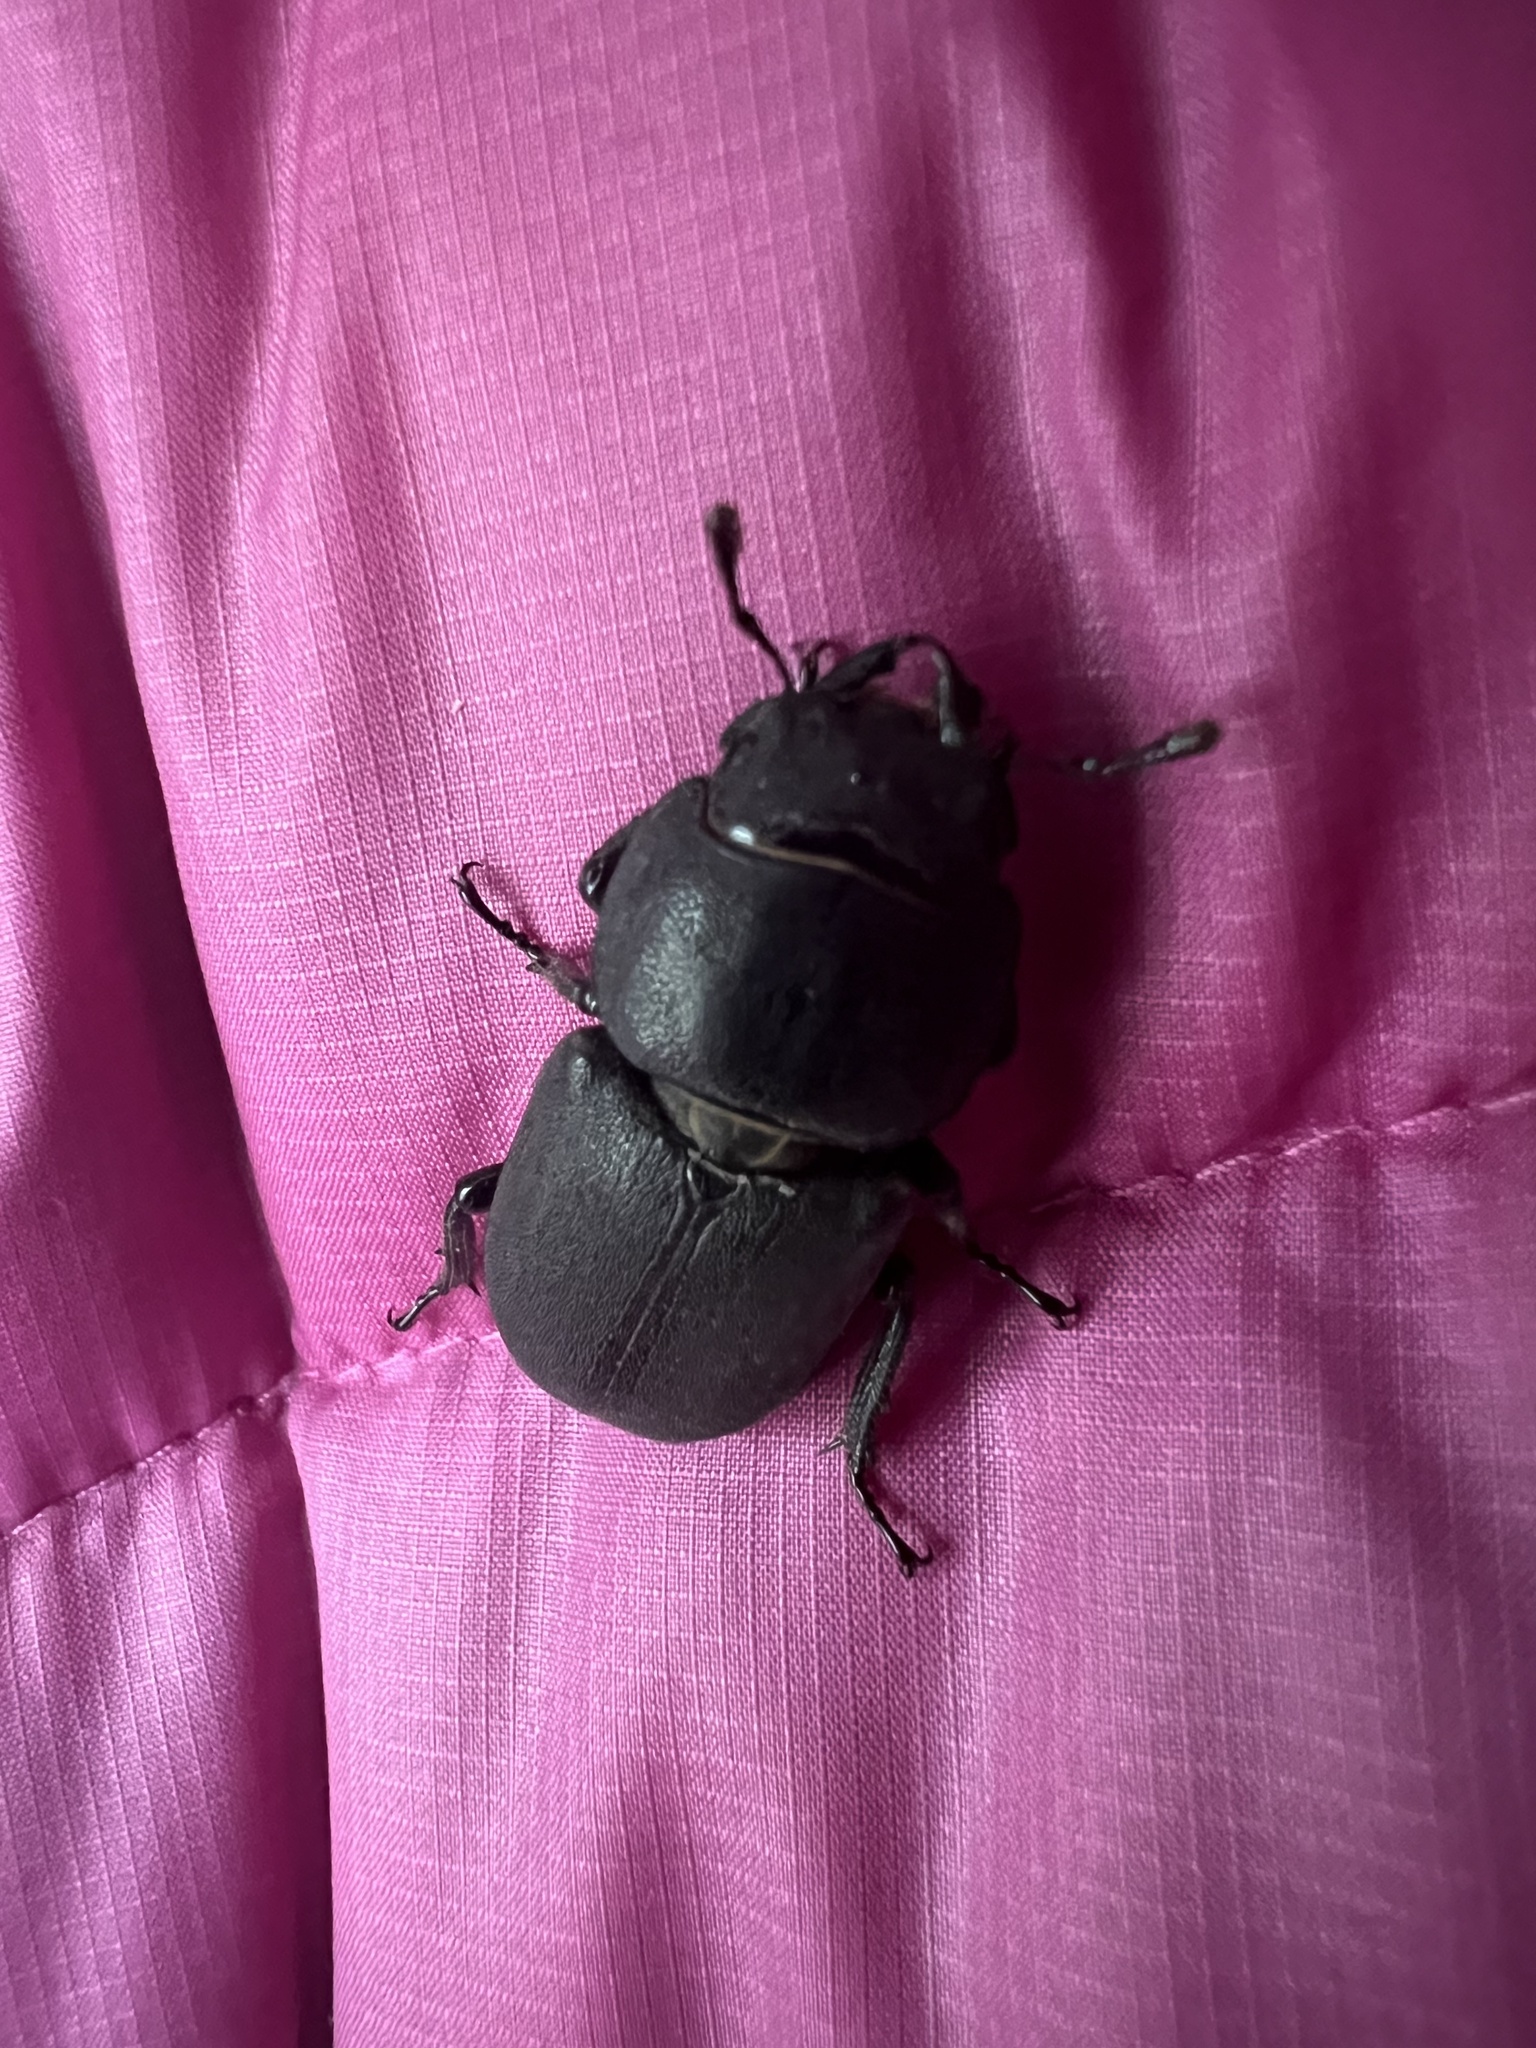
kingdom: Animalia
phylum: Arthropoda
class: Insecta
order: Coleoptera
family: Lucanidae
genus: Dorcus
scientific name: Dorcus parallelipipedus
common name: Lesser stag beetle
